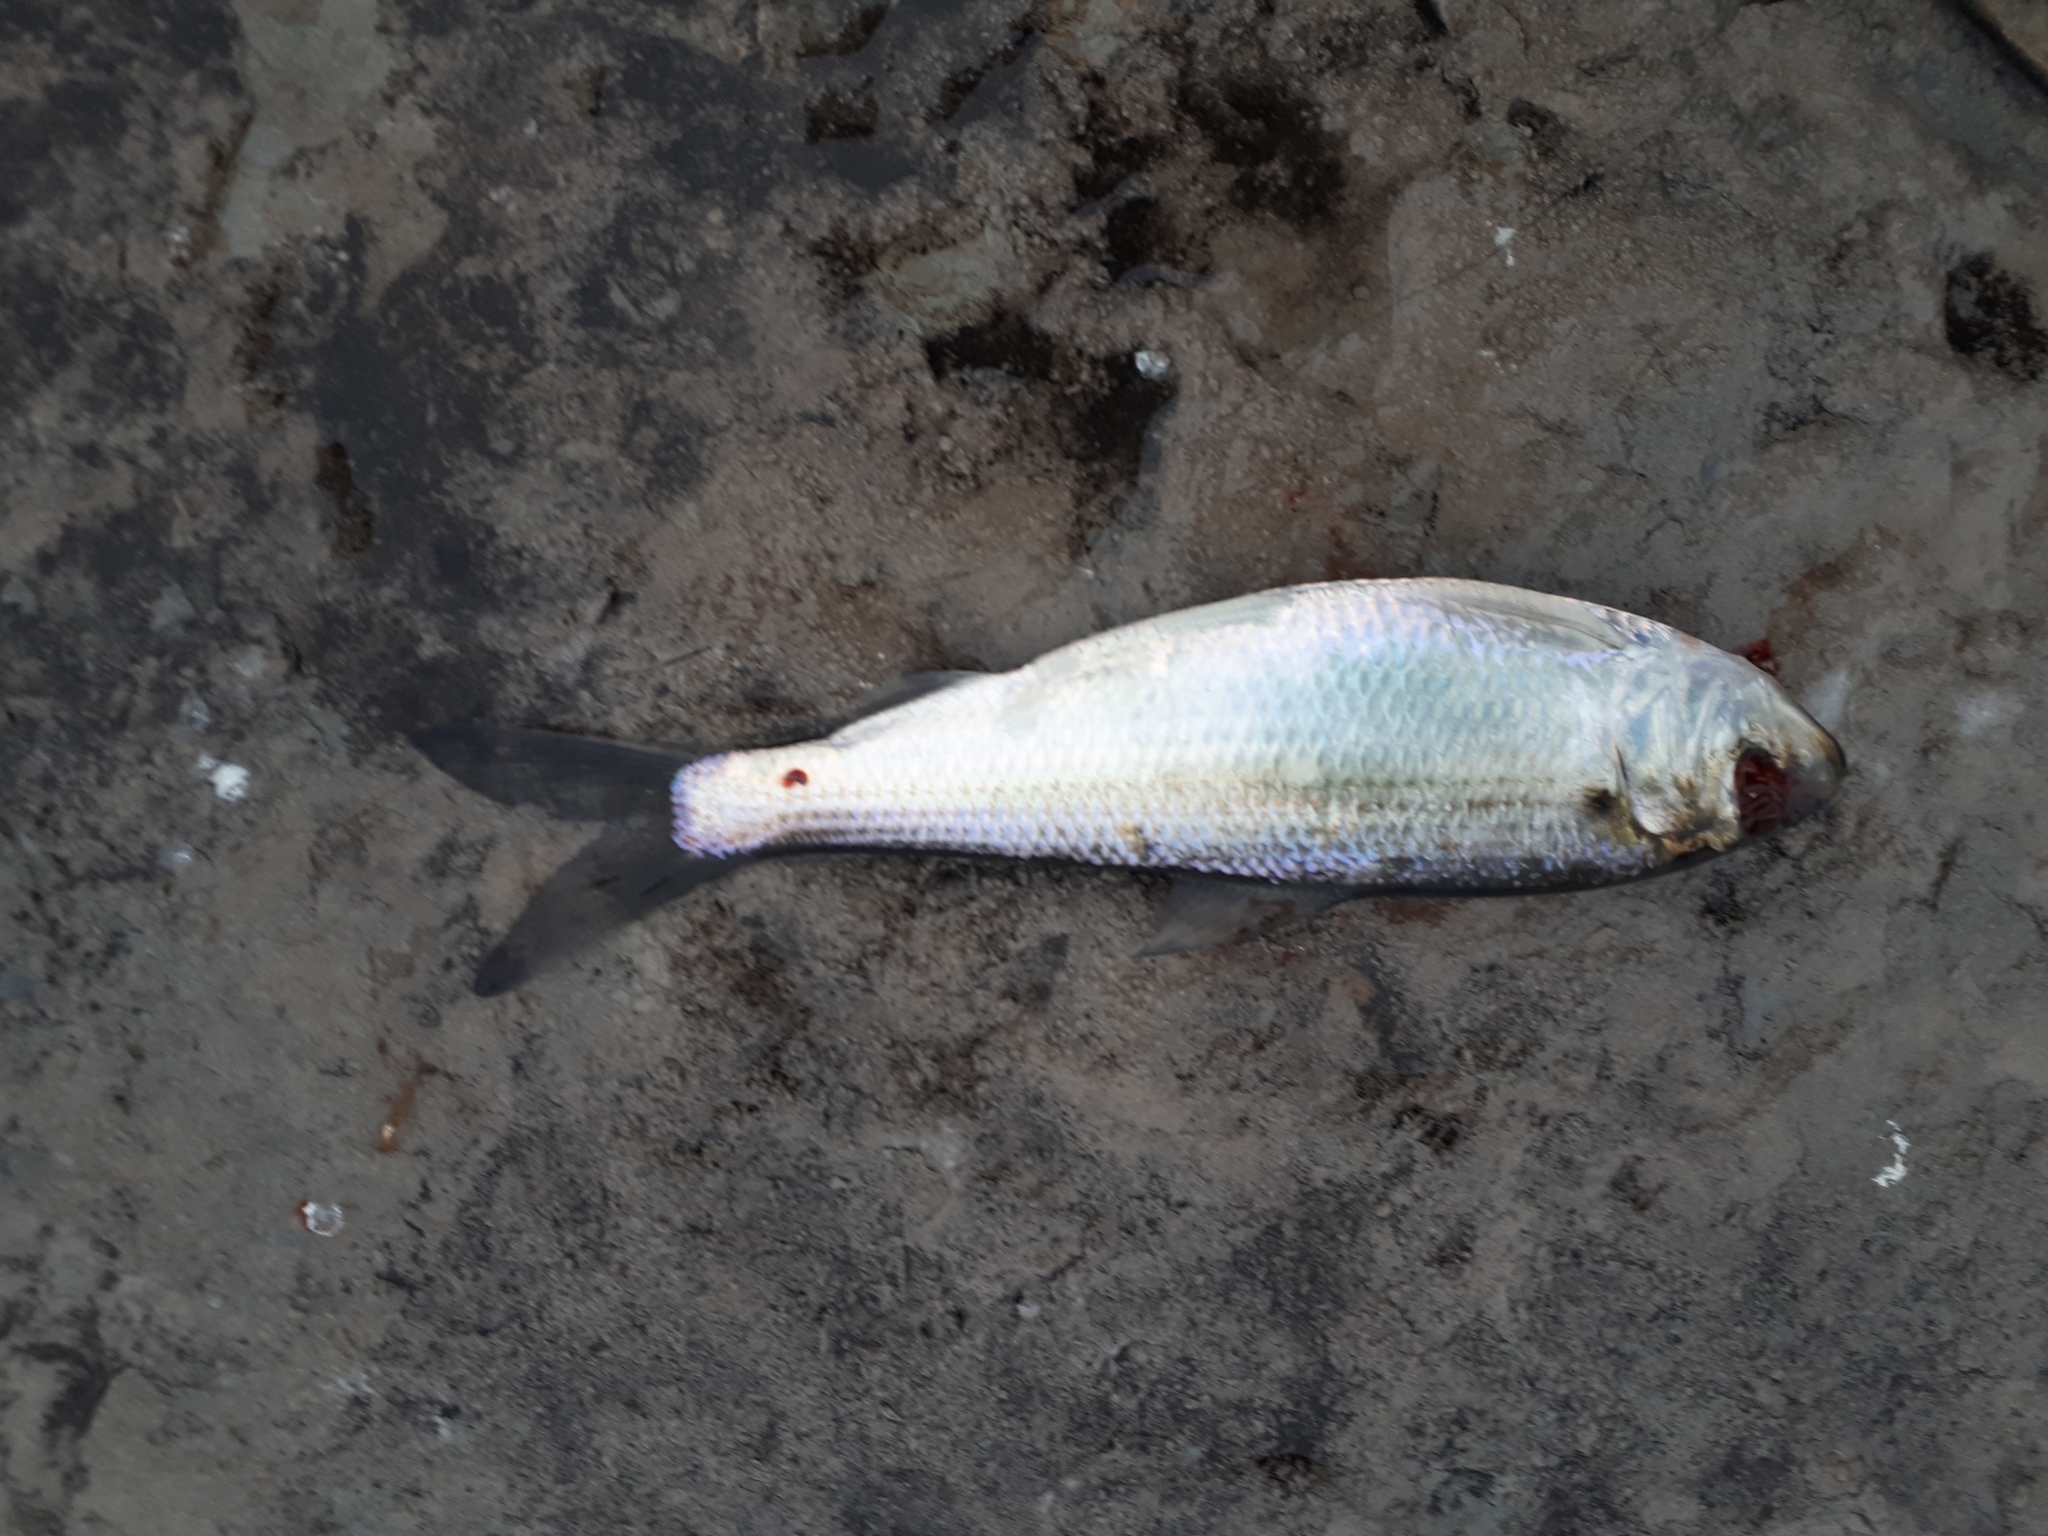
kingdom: Animalia
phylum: Chordata
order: Clupeiformes
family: Clupeidae
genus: Alosa
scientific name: Alosa pseudoharengus
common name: Alewife
